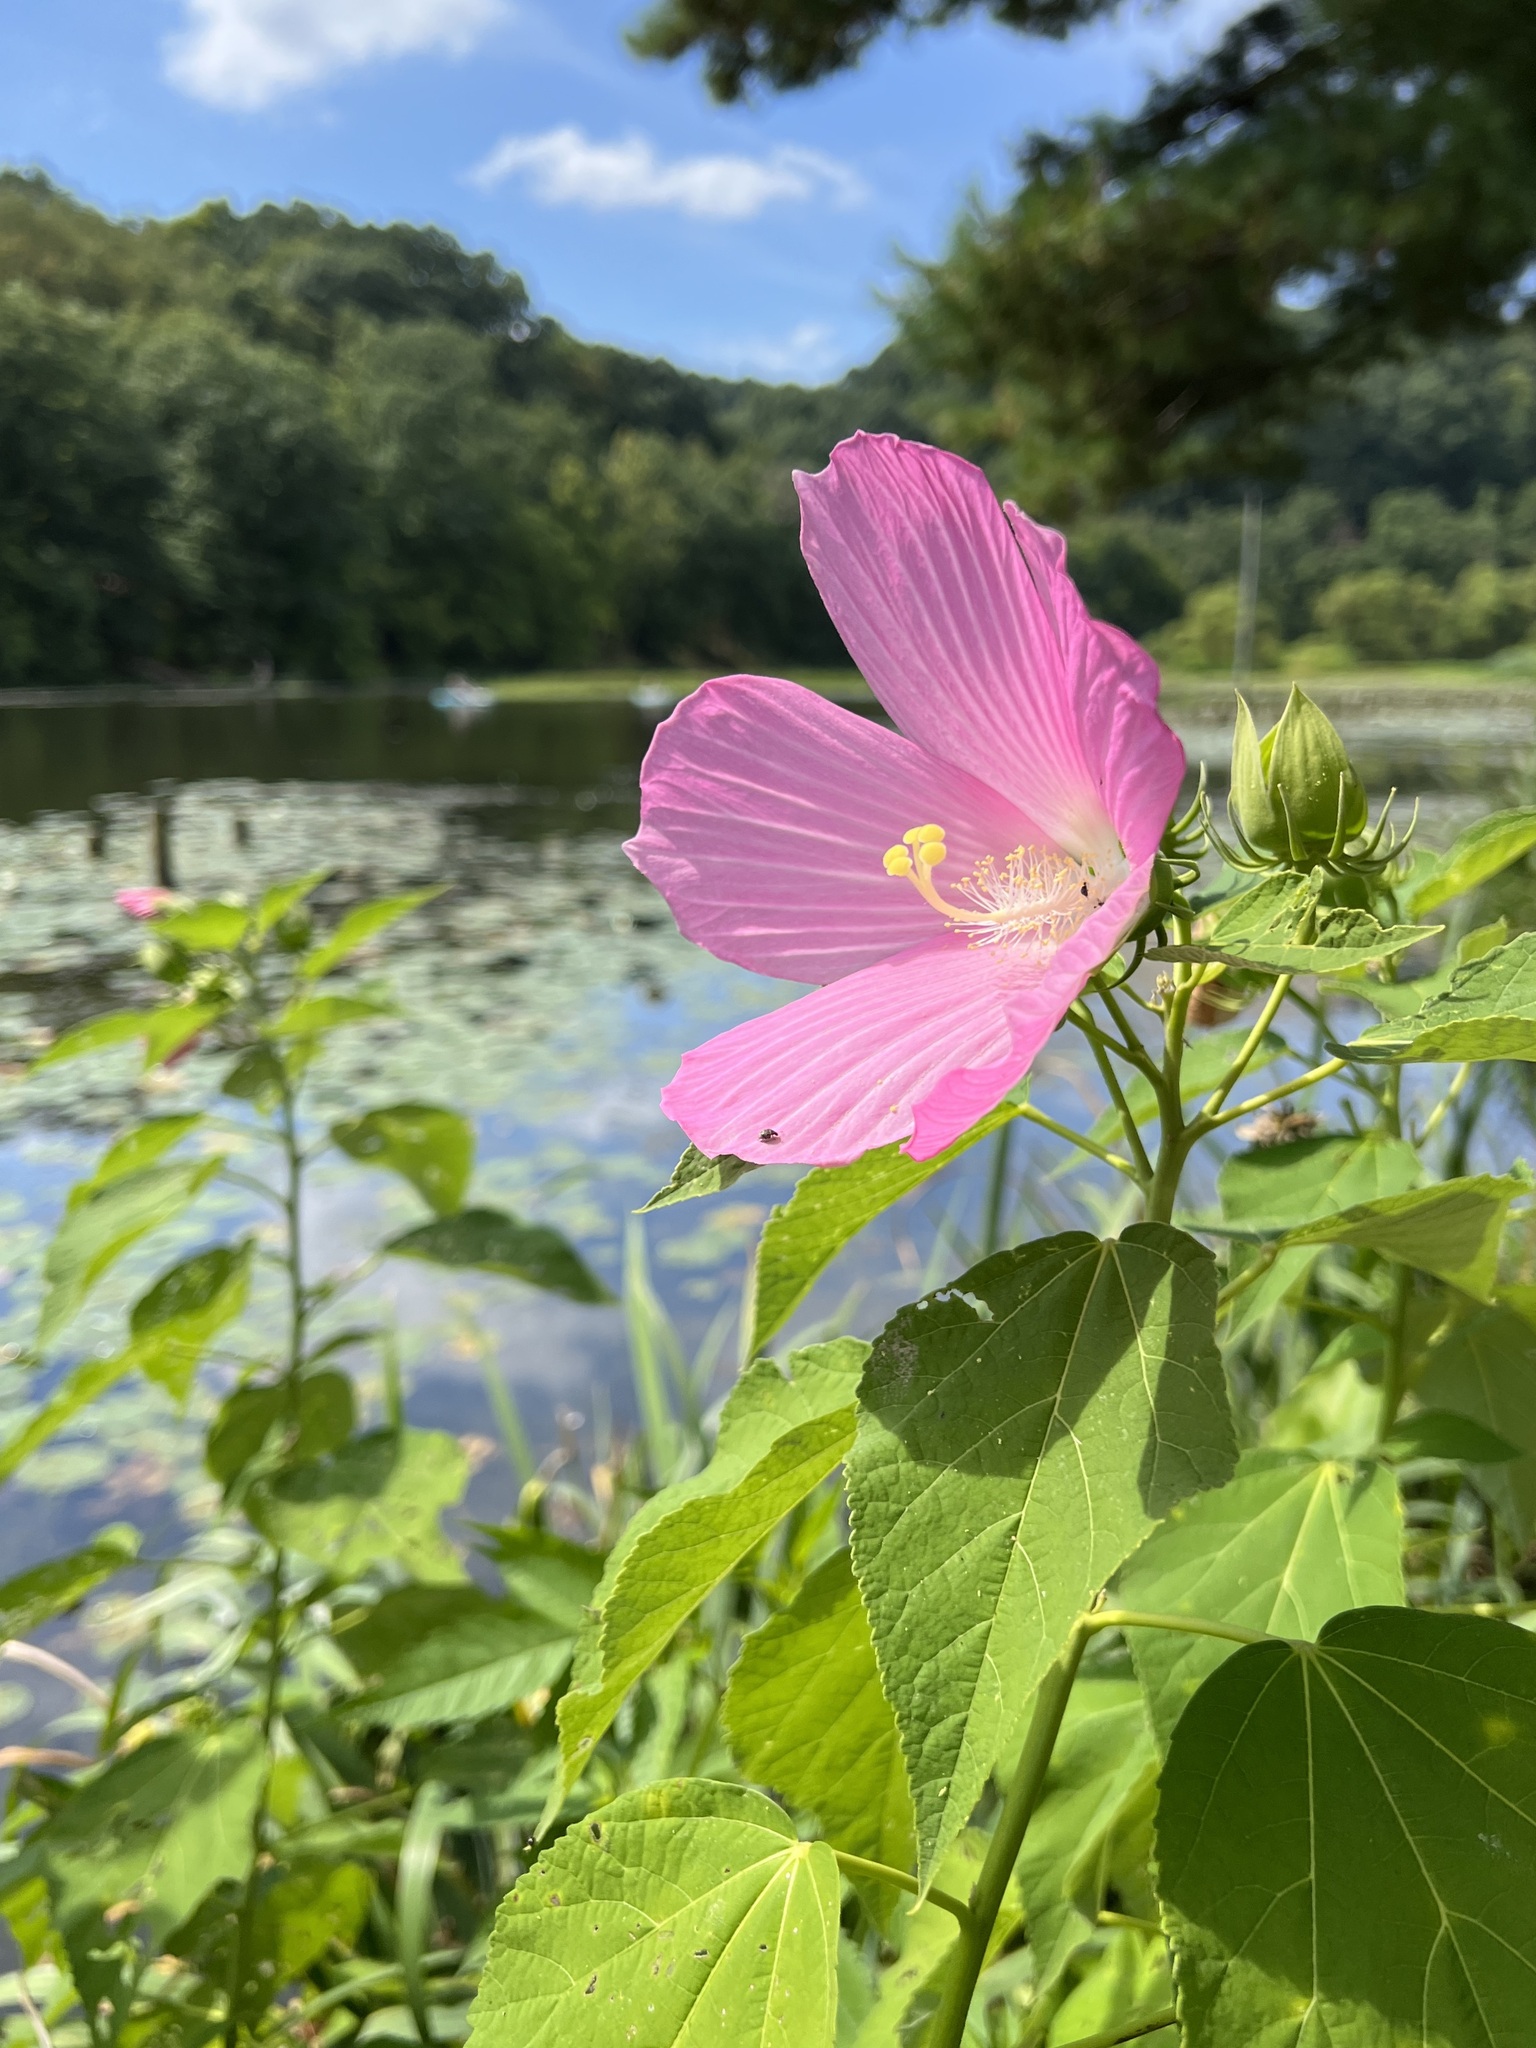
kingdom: Plantae
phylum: Tracheophyta
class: Magnoliopsida
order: Malvales
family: Malvaceae
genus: Hibiscus
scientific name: Hibiscus moscheutos
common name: Common rose-mallow
